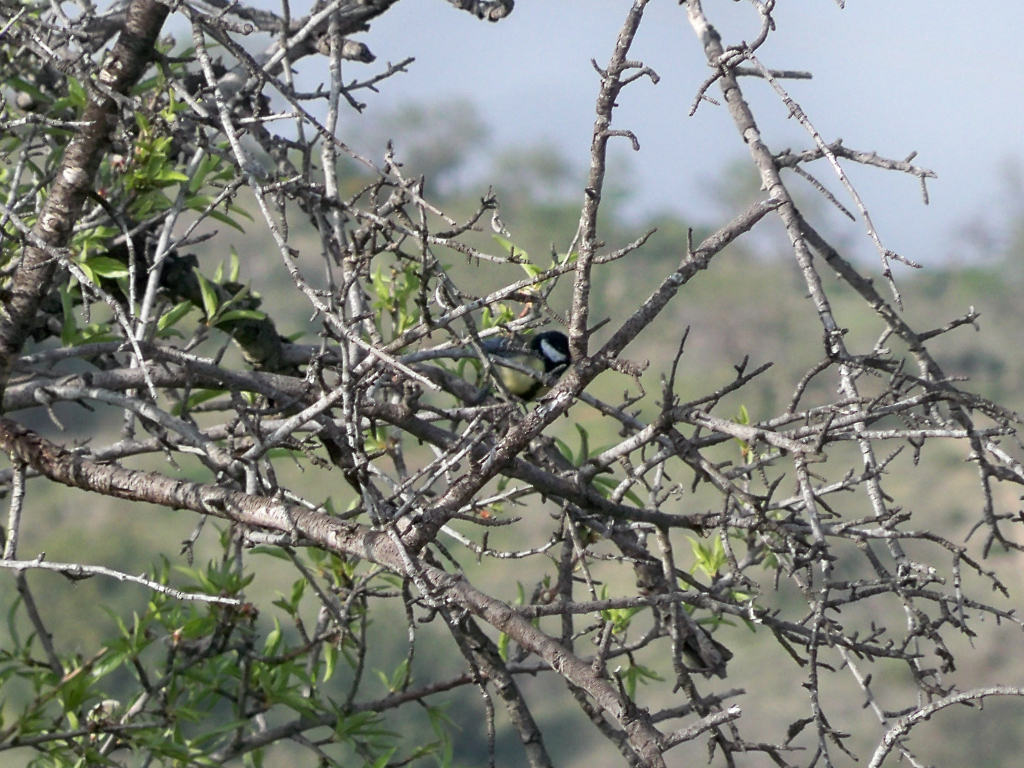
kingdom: Animalia
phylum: Chordata
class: Aves
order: Passeriformes
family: Paridae
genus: Parus
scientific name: Parus major
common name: Great tit
